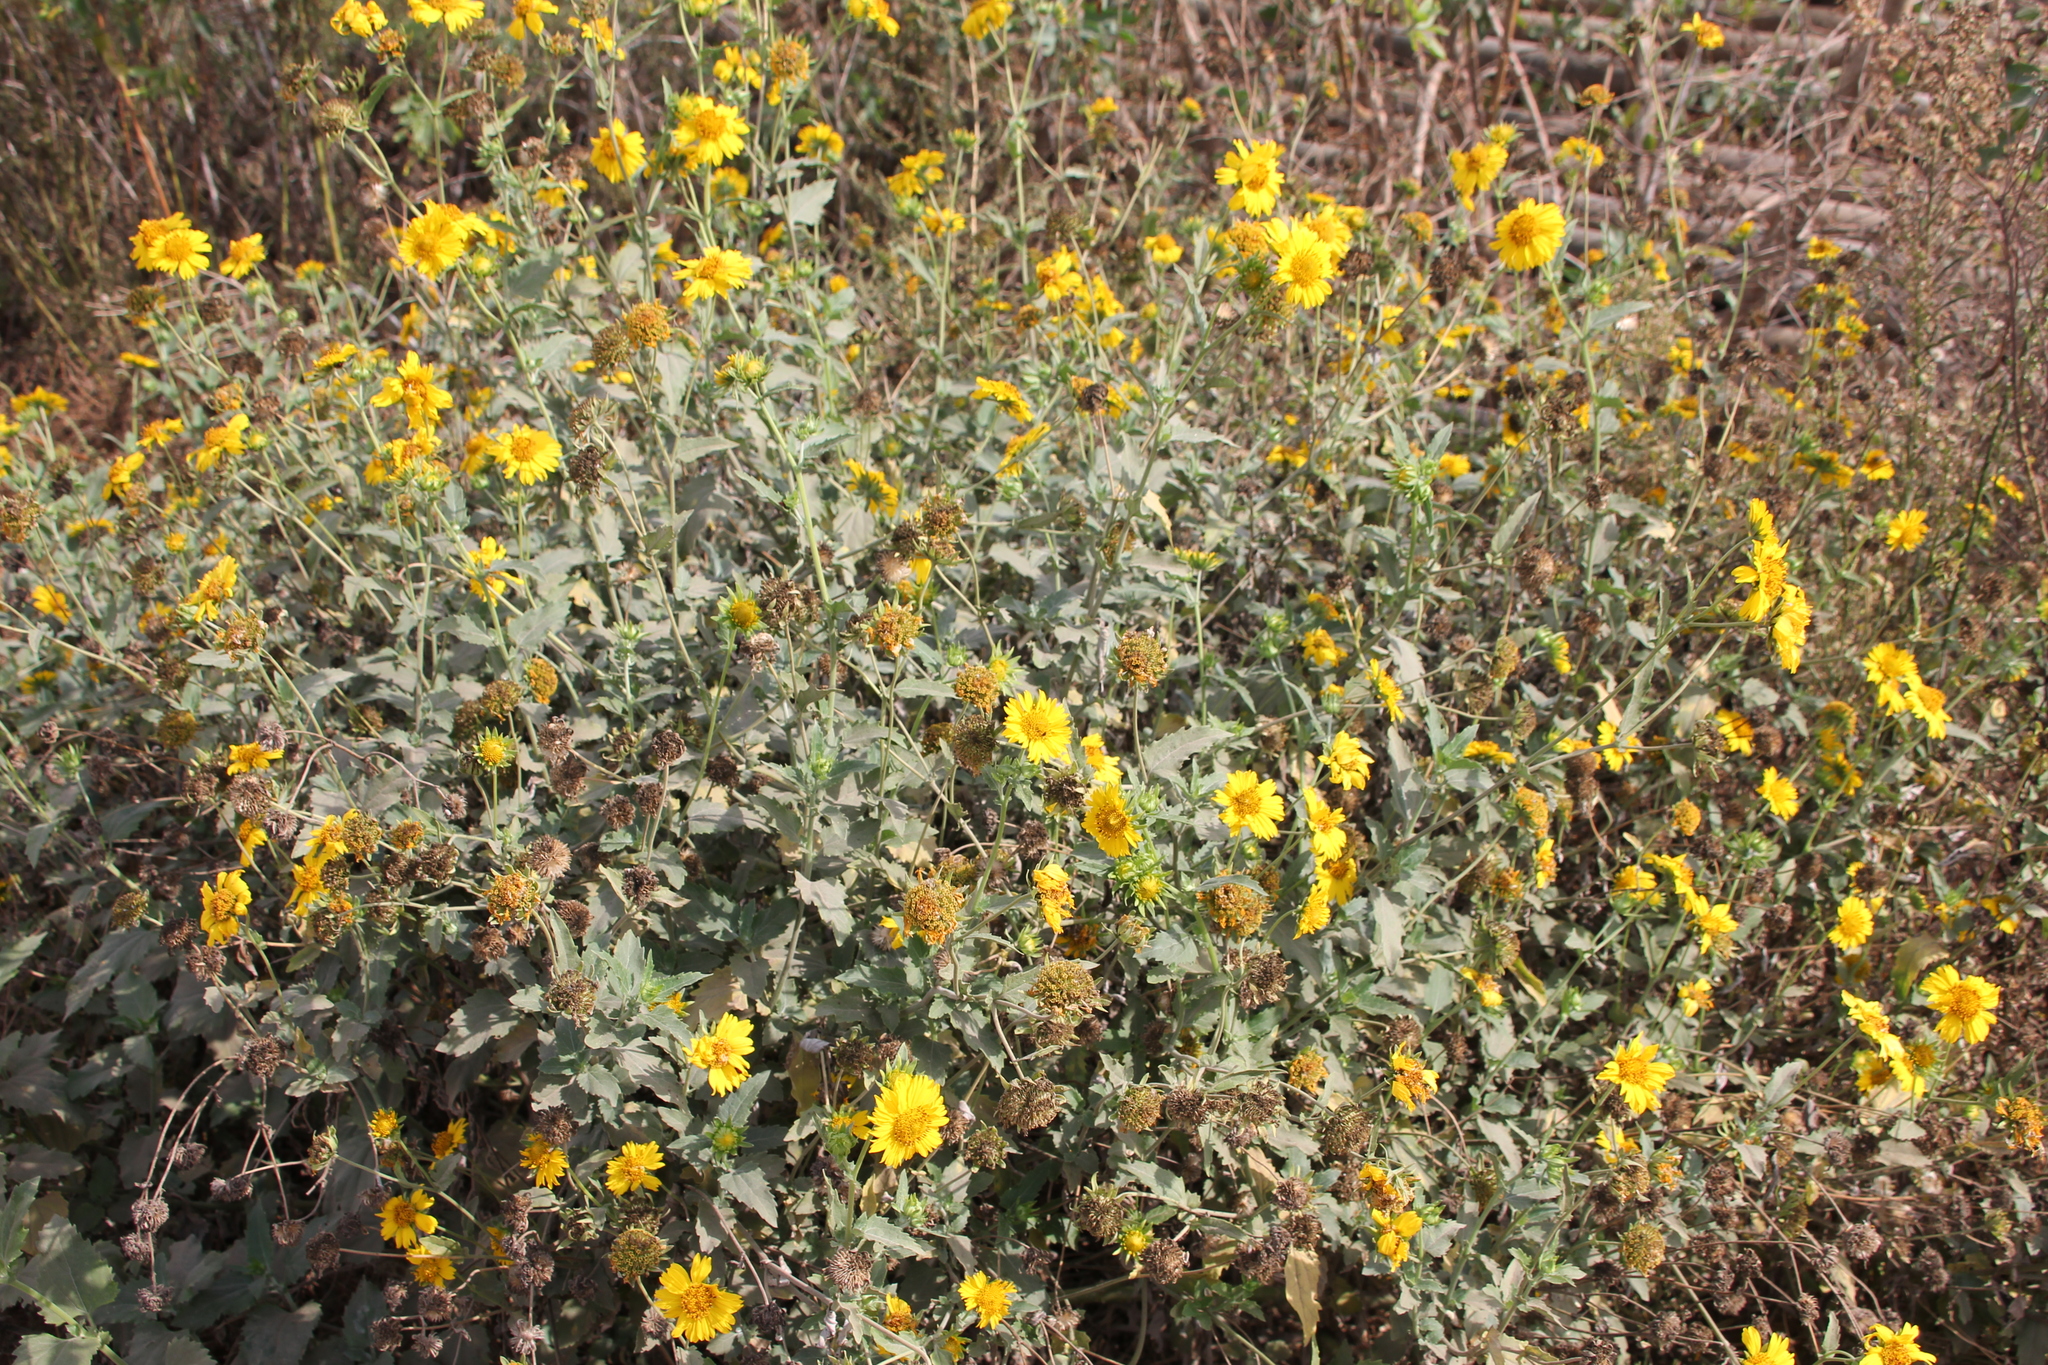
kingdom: Plantae
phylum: Tracheophyta
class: Magnoliopsida
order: Asterales
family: Asteraceae
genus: Verbesina
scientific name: Verbesina encelioides
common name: Golden crownbeard
